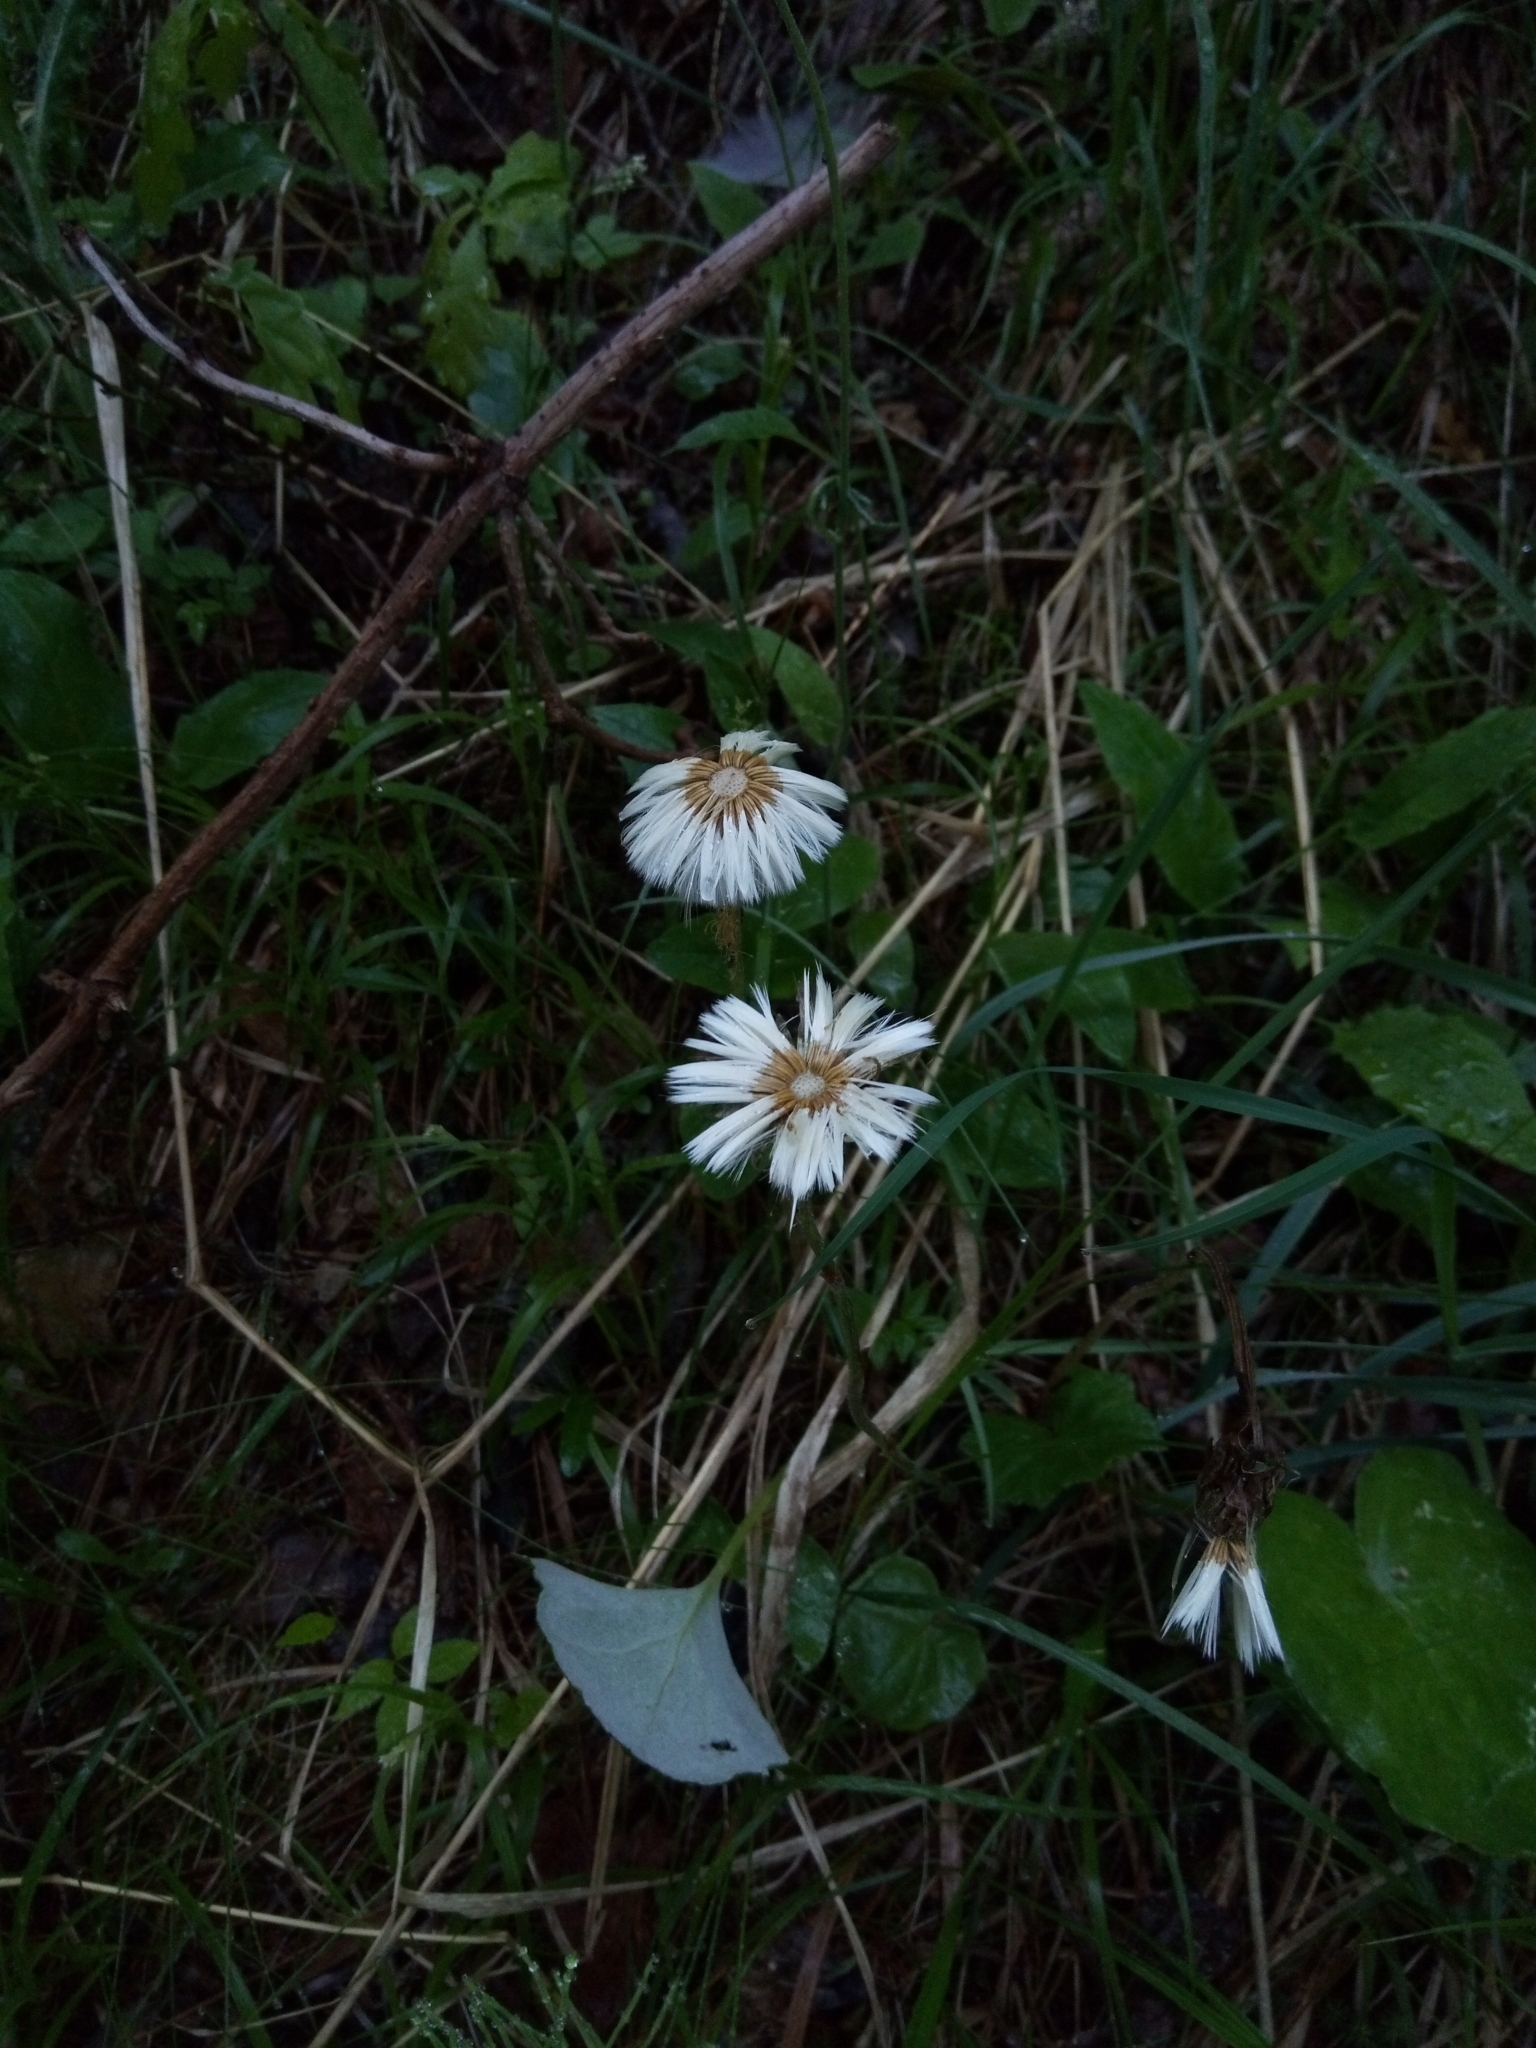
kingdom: Plantae
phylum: Tracheophyta
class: Magnoliopsida
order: Asterales
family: Asteraceae
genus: Tussilago
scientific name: Tussilago farfara
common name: Coltsfoot
